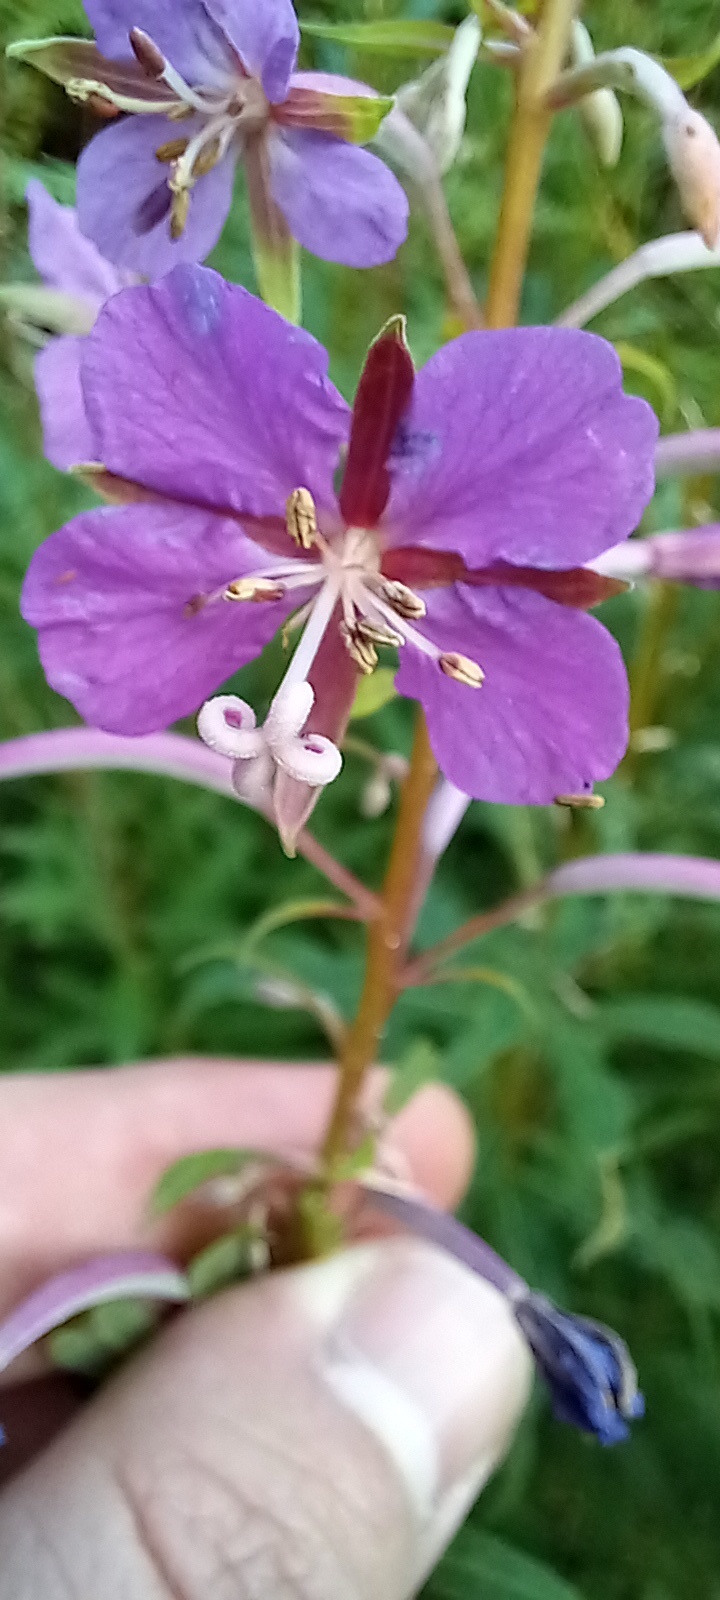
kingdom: Plantae
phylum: Tracheophyta
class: Magnoliopsida
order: Myrtales
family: Onagraceae
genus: Chamaenerion
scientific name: Chamaenerion angustifolium
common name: Fireweed
